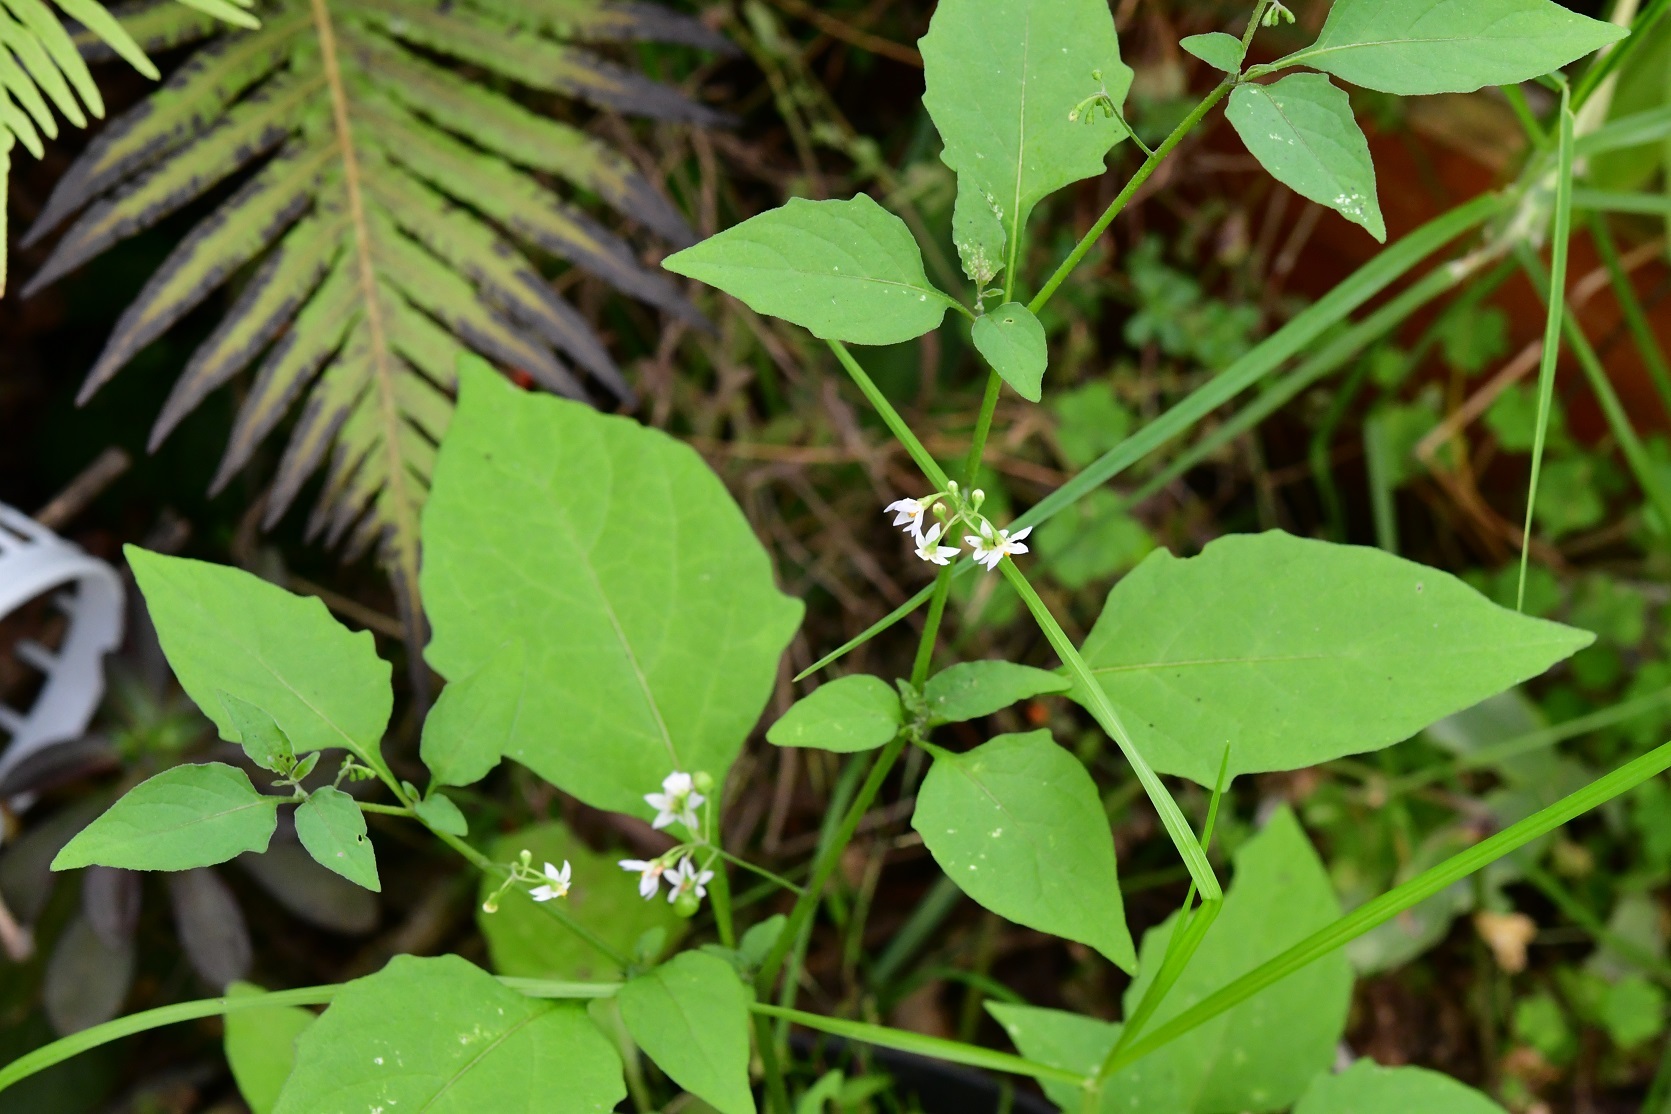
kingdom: Plantae
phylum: Tracheophyta
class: Magnoliopsida
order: Solanales
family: Solanaceae
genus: Solanum
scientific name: Solanum americanum
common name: American black nightshade
